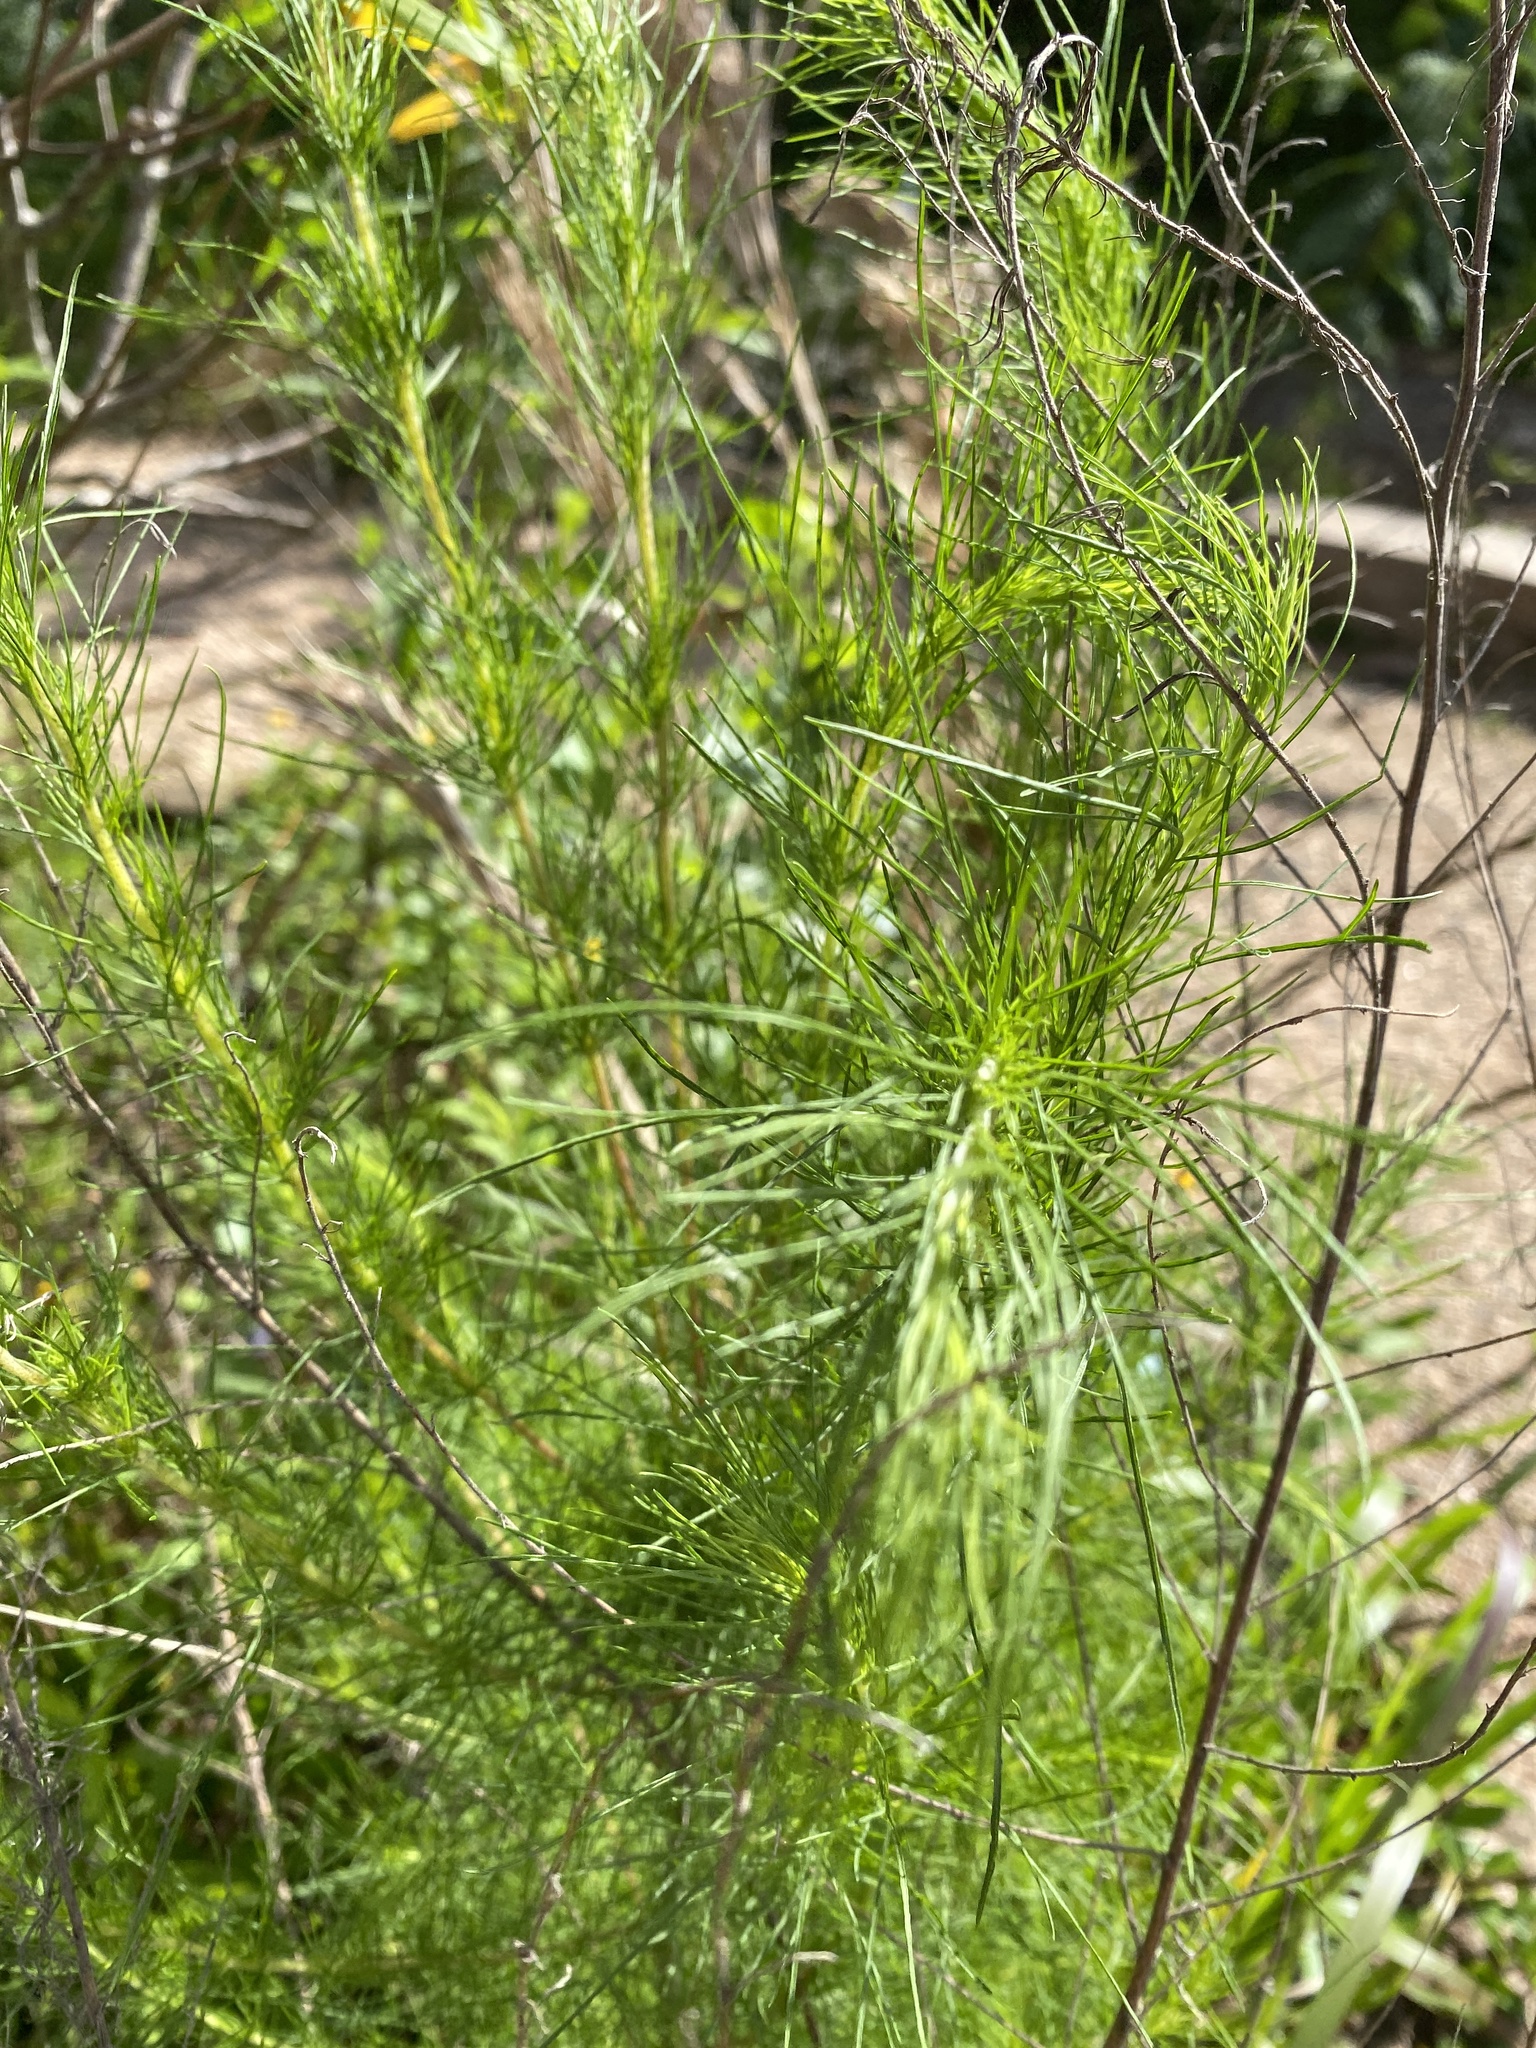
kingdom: Plantae
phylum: Tracheophyta
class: Magnoliopsida
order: Asterales
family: Asteraceae
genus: Eupatorium
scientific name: Eupatorium capillifolium
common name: Dog-fennel
